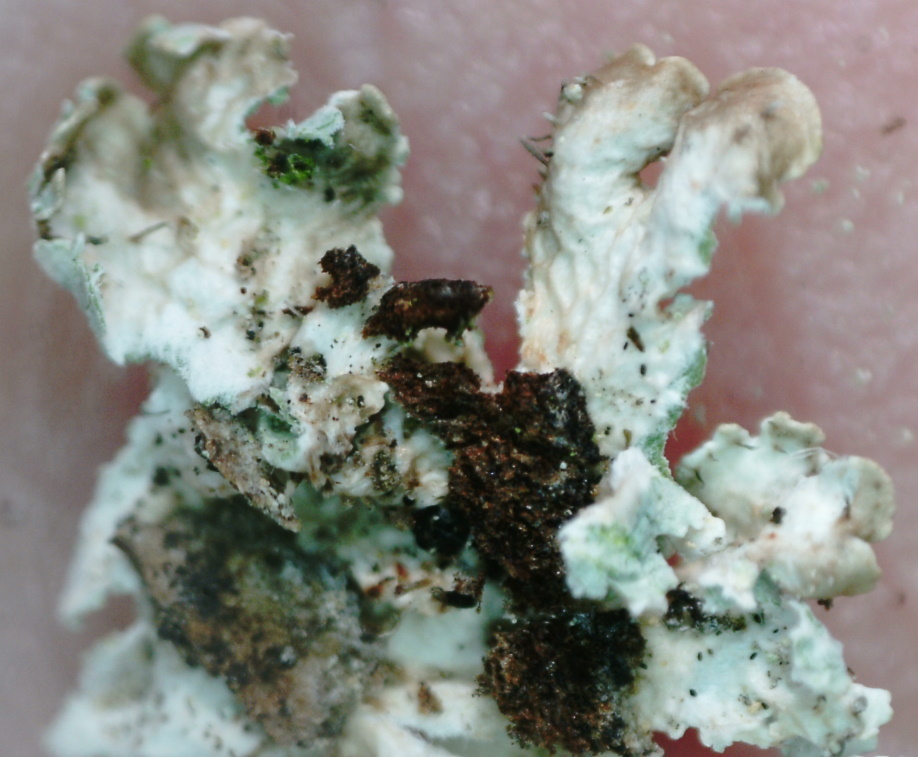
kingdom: Fungi
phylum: Ascomycota
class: Lecanoromycetes
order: Lecanorales
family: Parmeliaceae
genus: Imshaugia
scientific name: Imshaugia aleurites
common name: Salted starburst lichen
